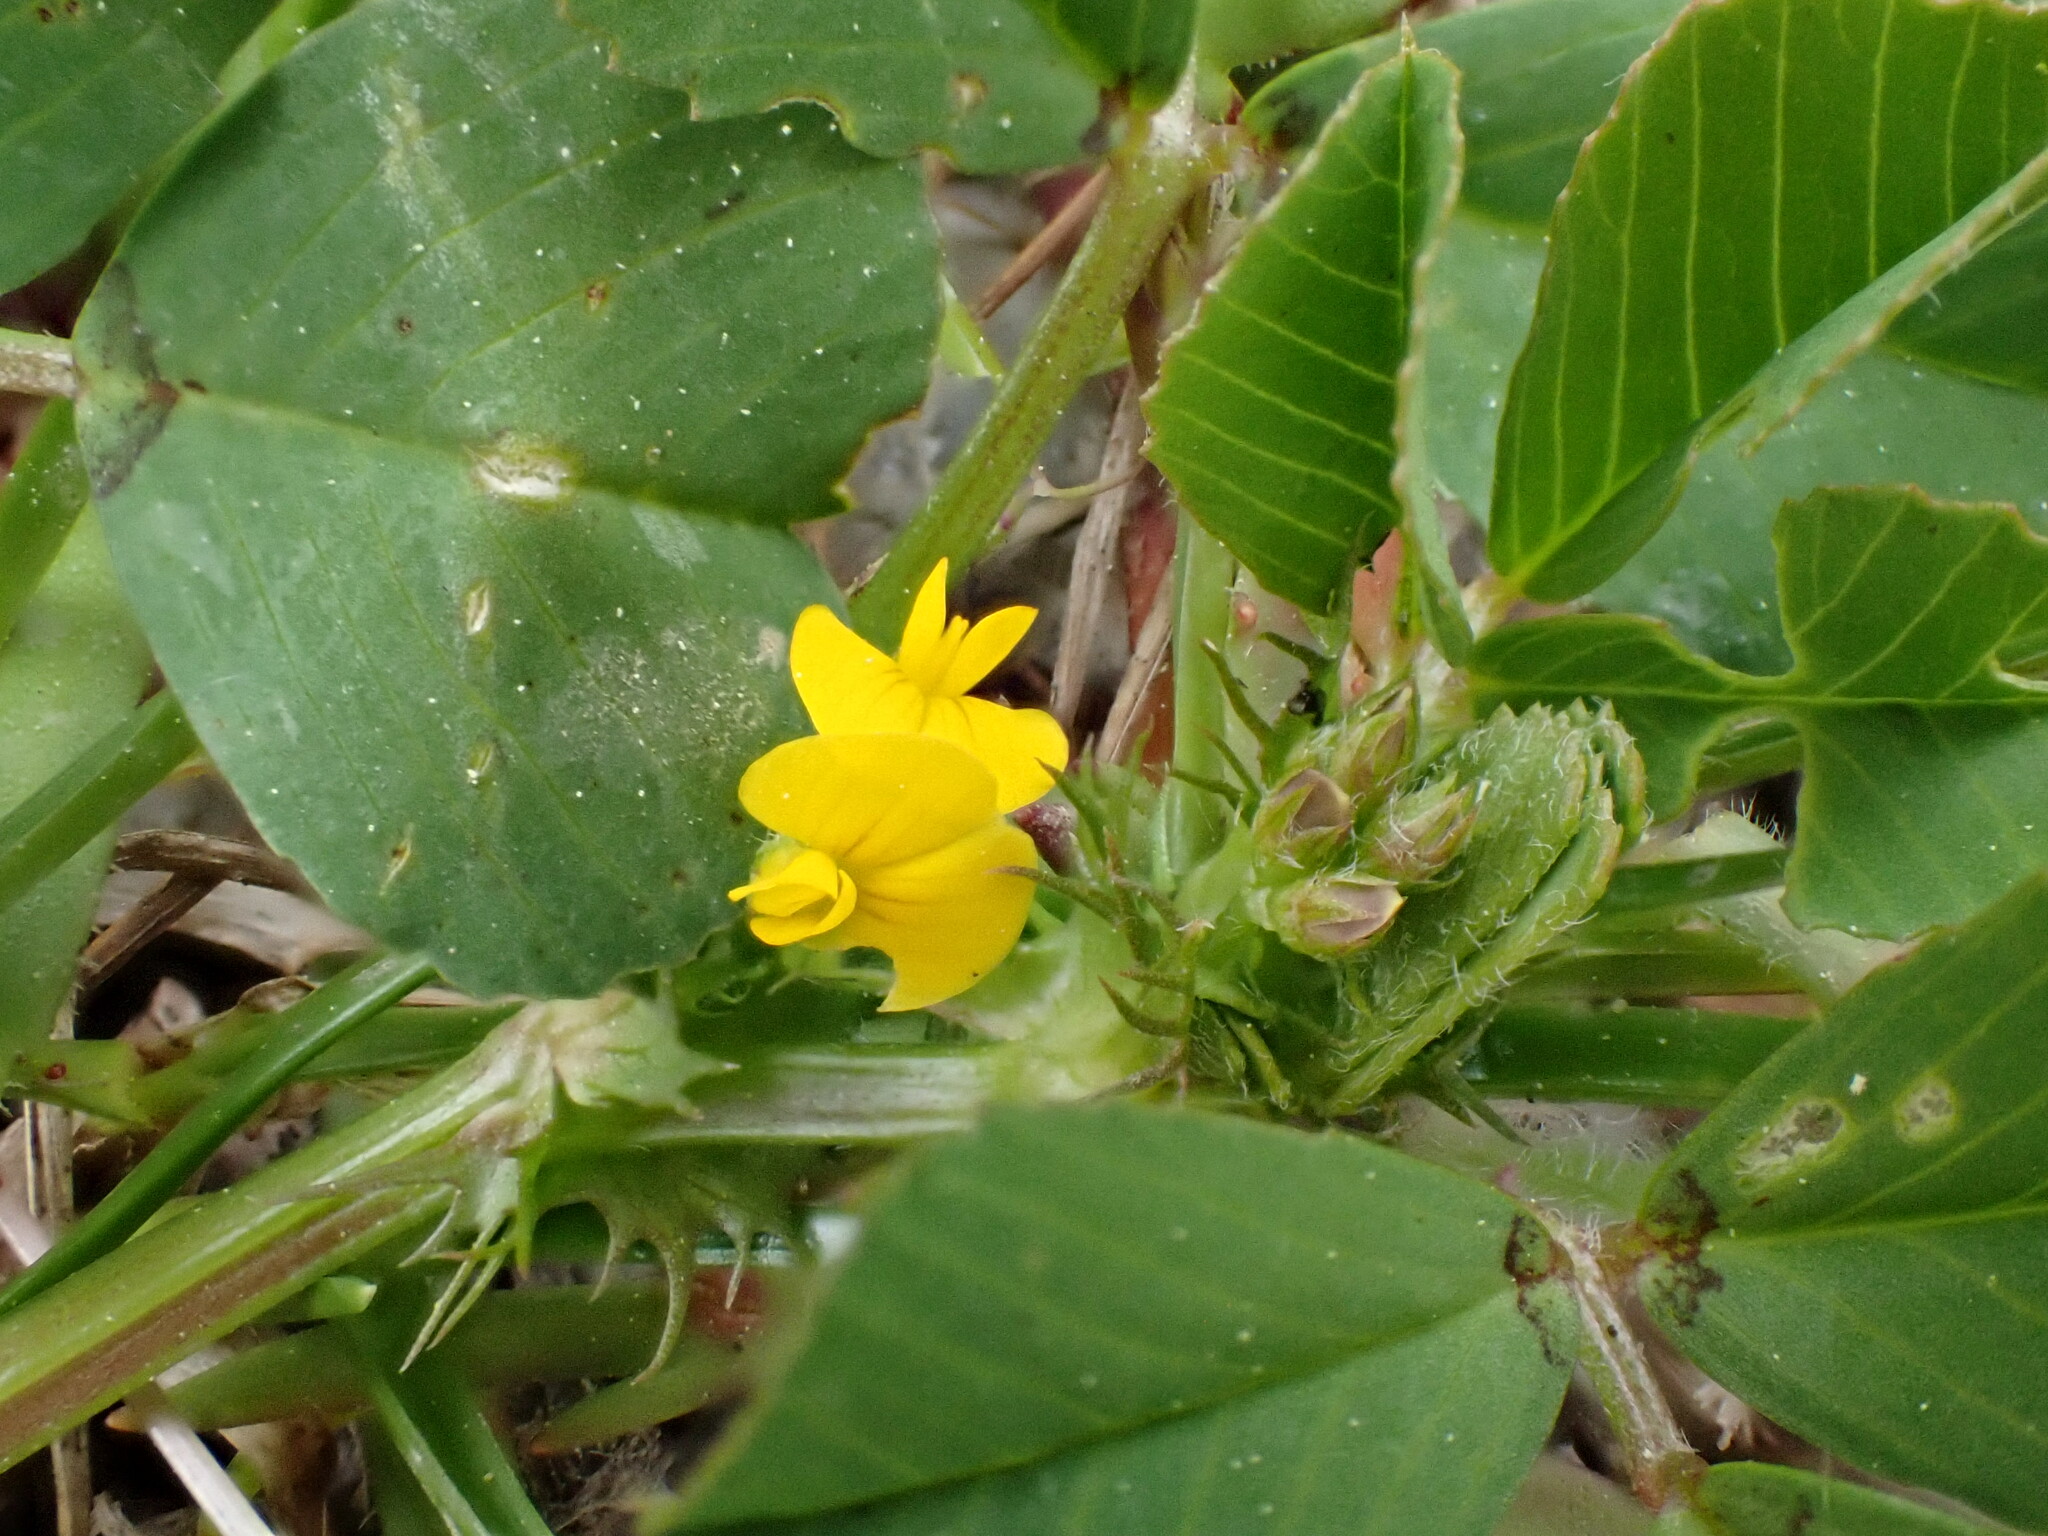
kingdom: Plantae
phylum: Tracheophyta
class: Magnoliopsida
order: Fabales
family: Fabaceae
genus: Medicago
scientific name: Medicago polymorpha
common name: Burclover
